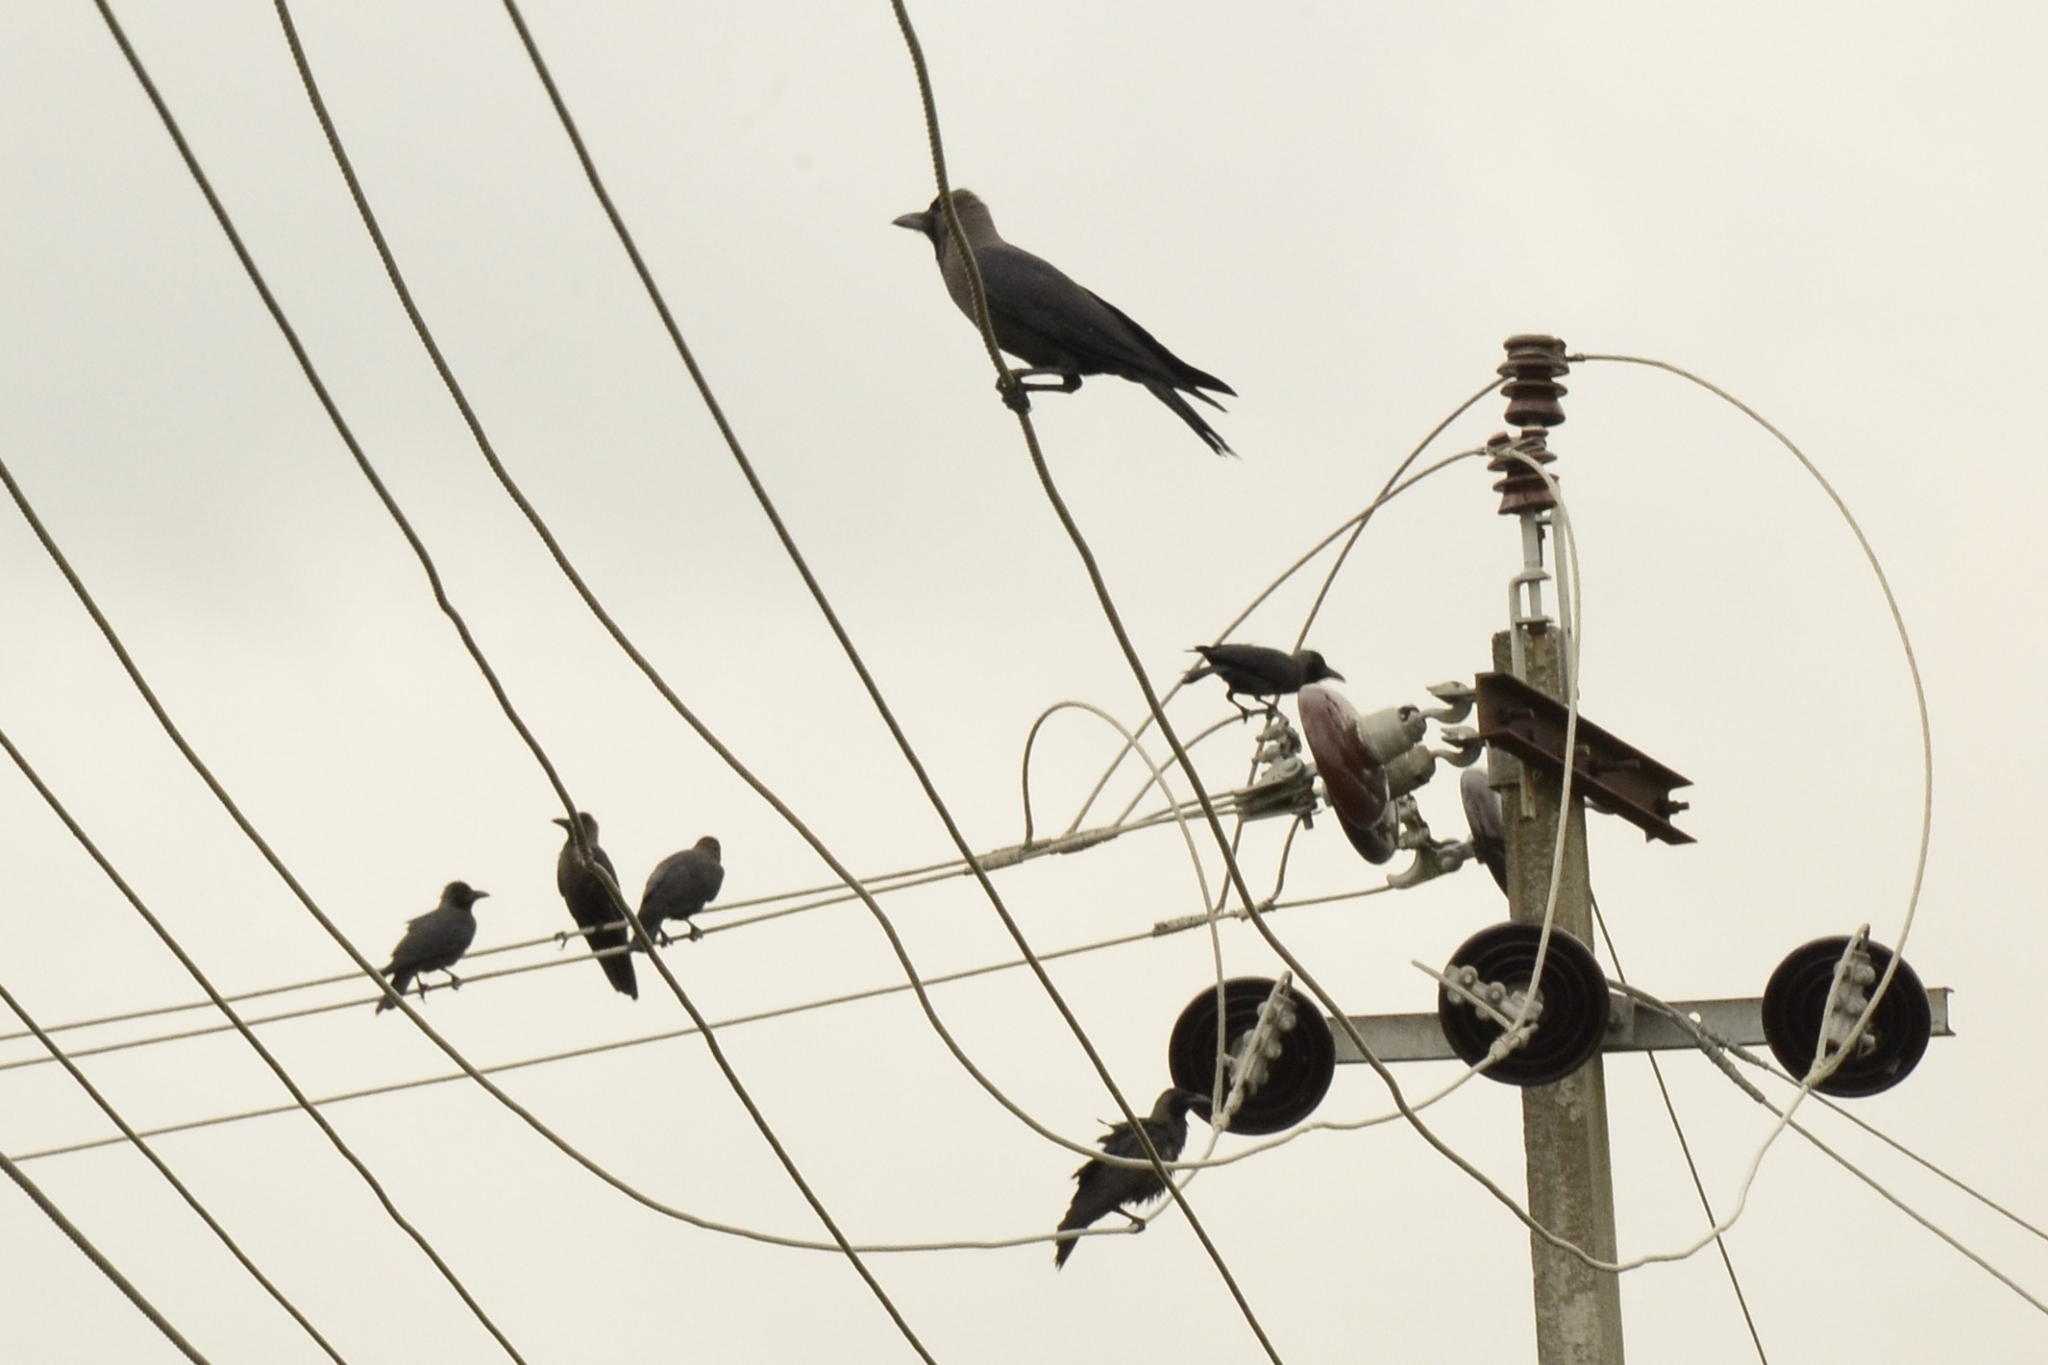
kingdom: Animalia
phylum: Chordata
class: Aves
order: Passeriformes
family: Corvidae
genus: Corvus
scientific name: Corvus splendens
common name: House crow
